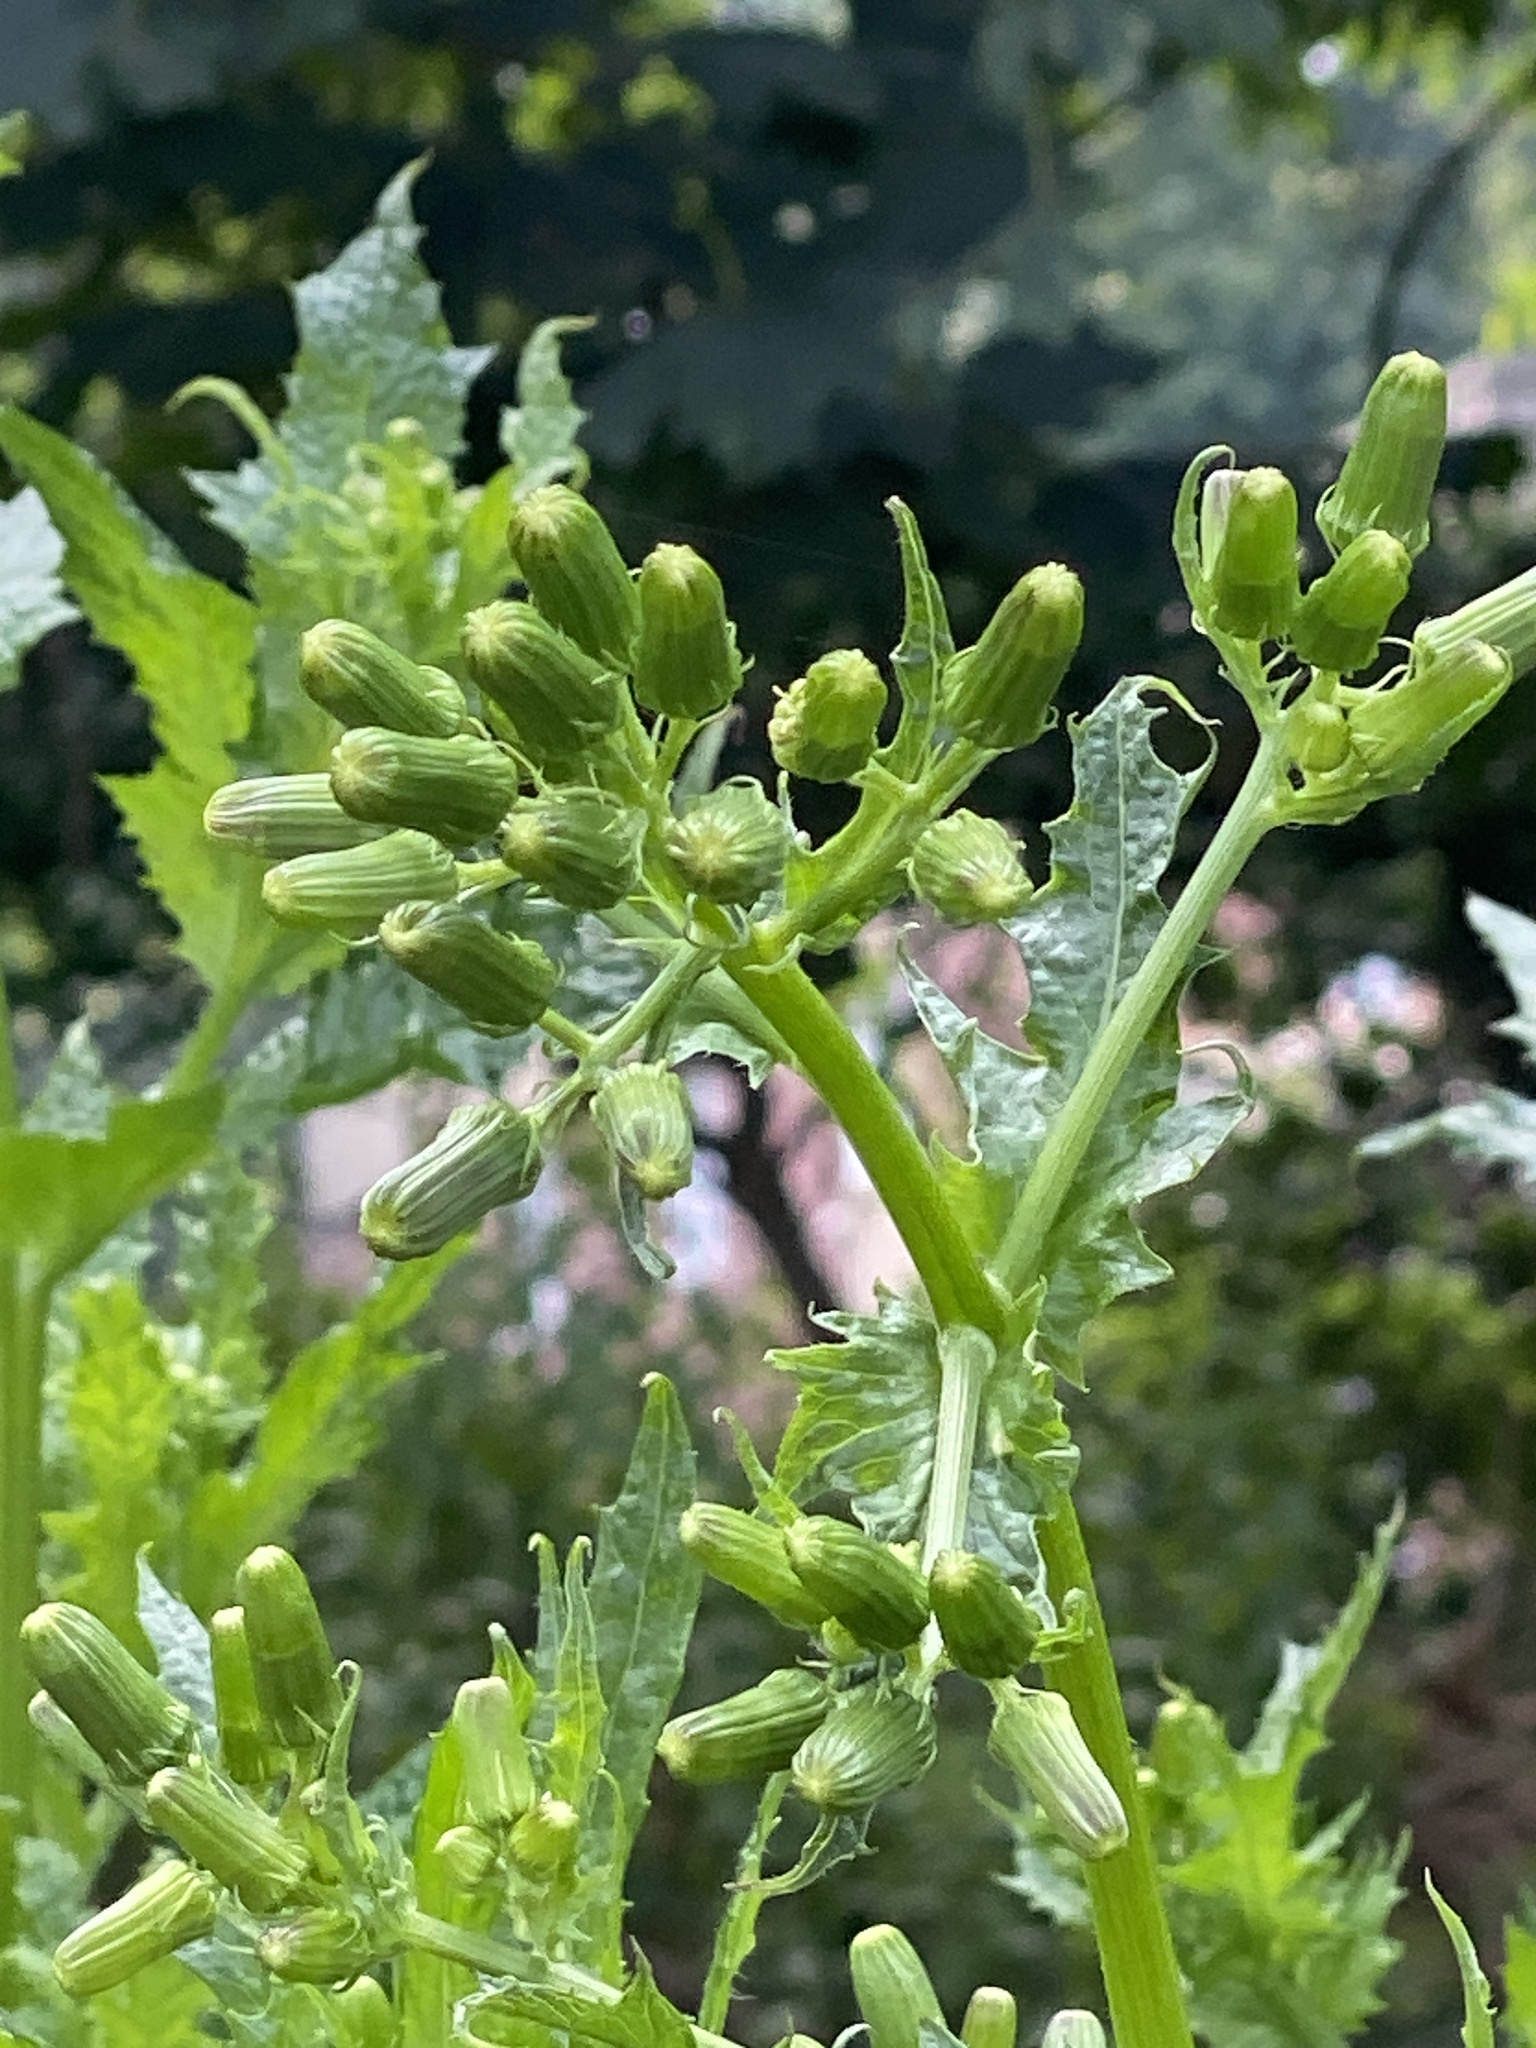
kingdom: Plantae
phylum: Tracheophyta
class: Magnoliopsida
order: Asterales
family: Asteraceae
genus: Erechtites
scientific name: Erechtites hieraciifolius
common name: American burnweed
